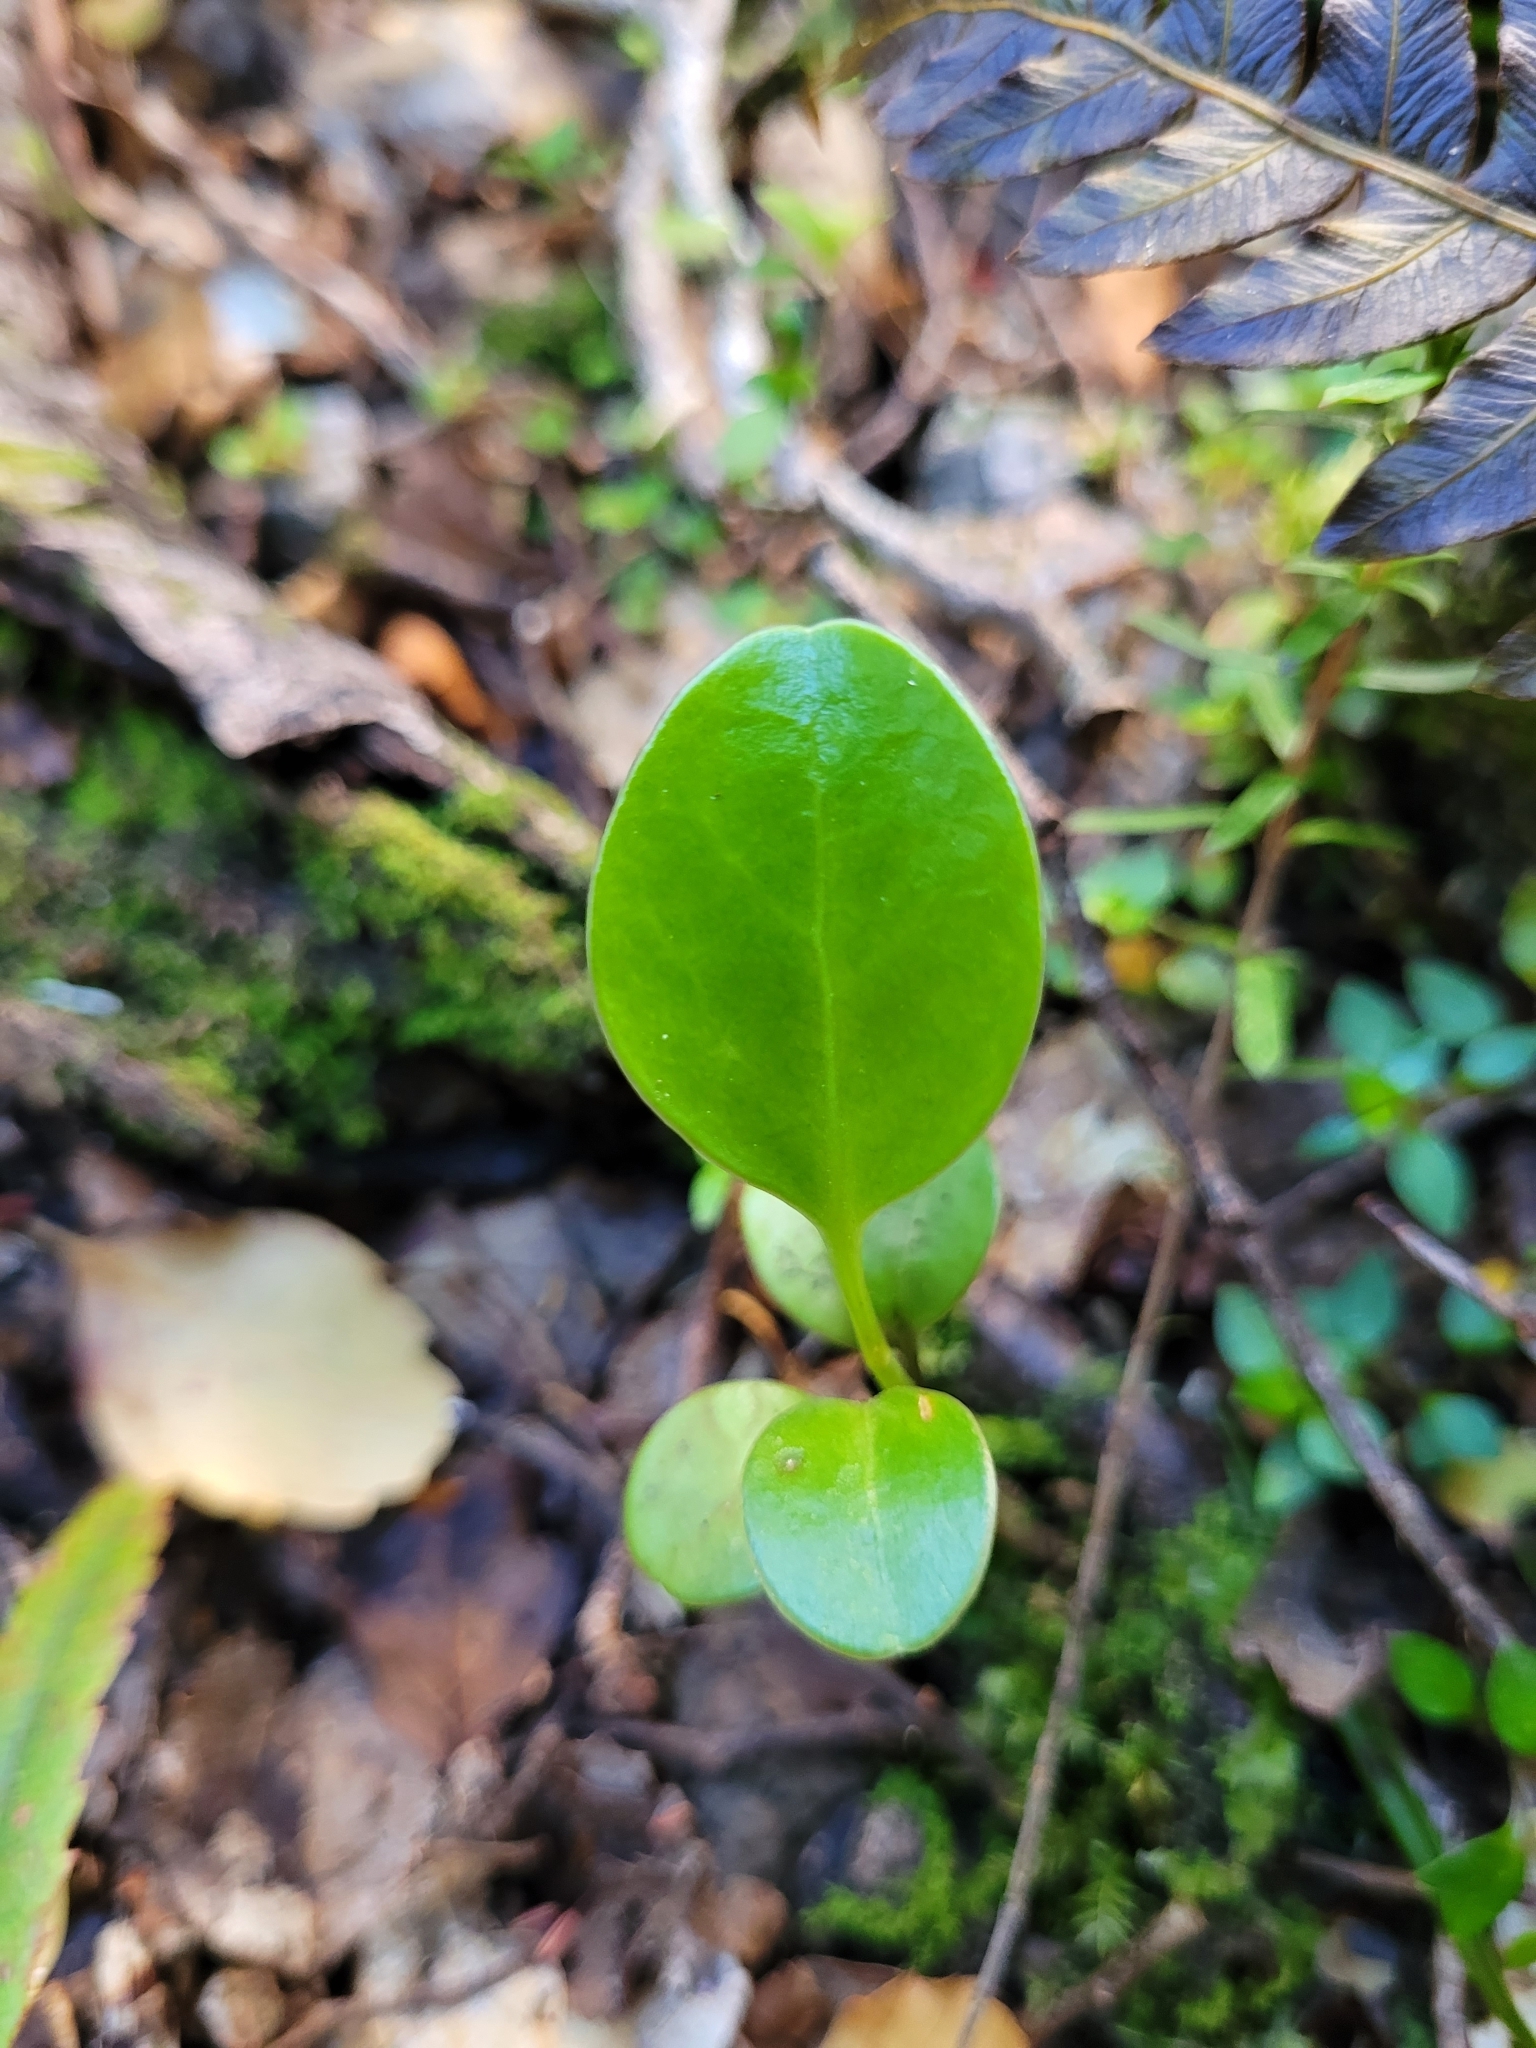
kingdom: Plantae
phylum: Tracheophyta
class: Magnoliopsida
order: Apiales
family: Griseliniaceae
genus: Griselinia
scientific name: Griselinia littoralis
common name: New zealand broadleaf
